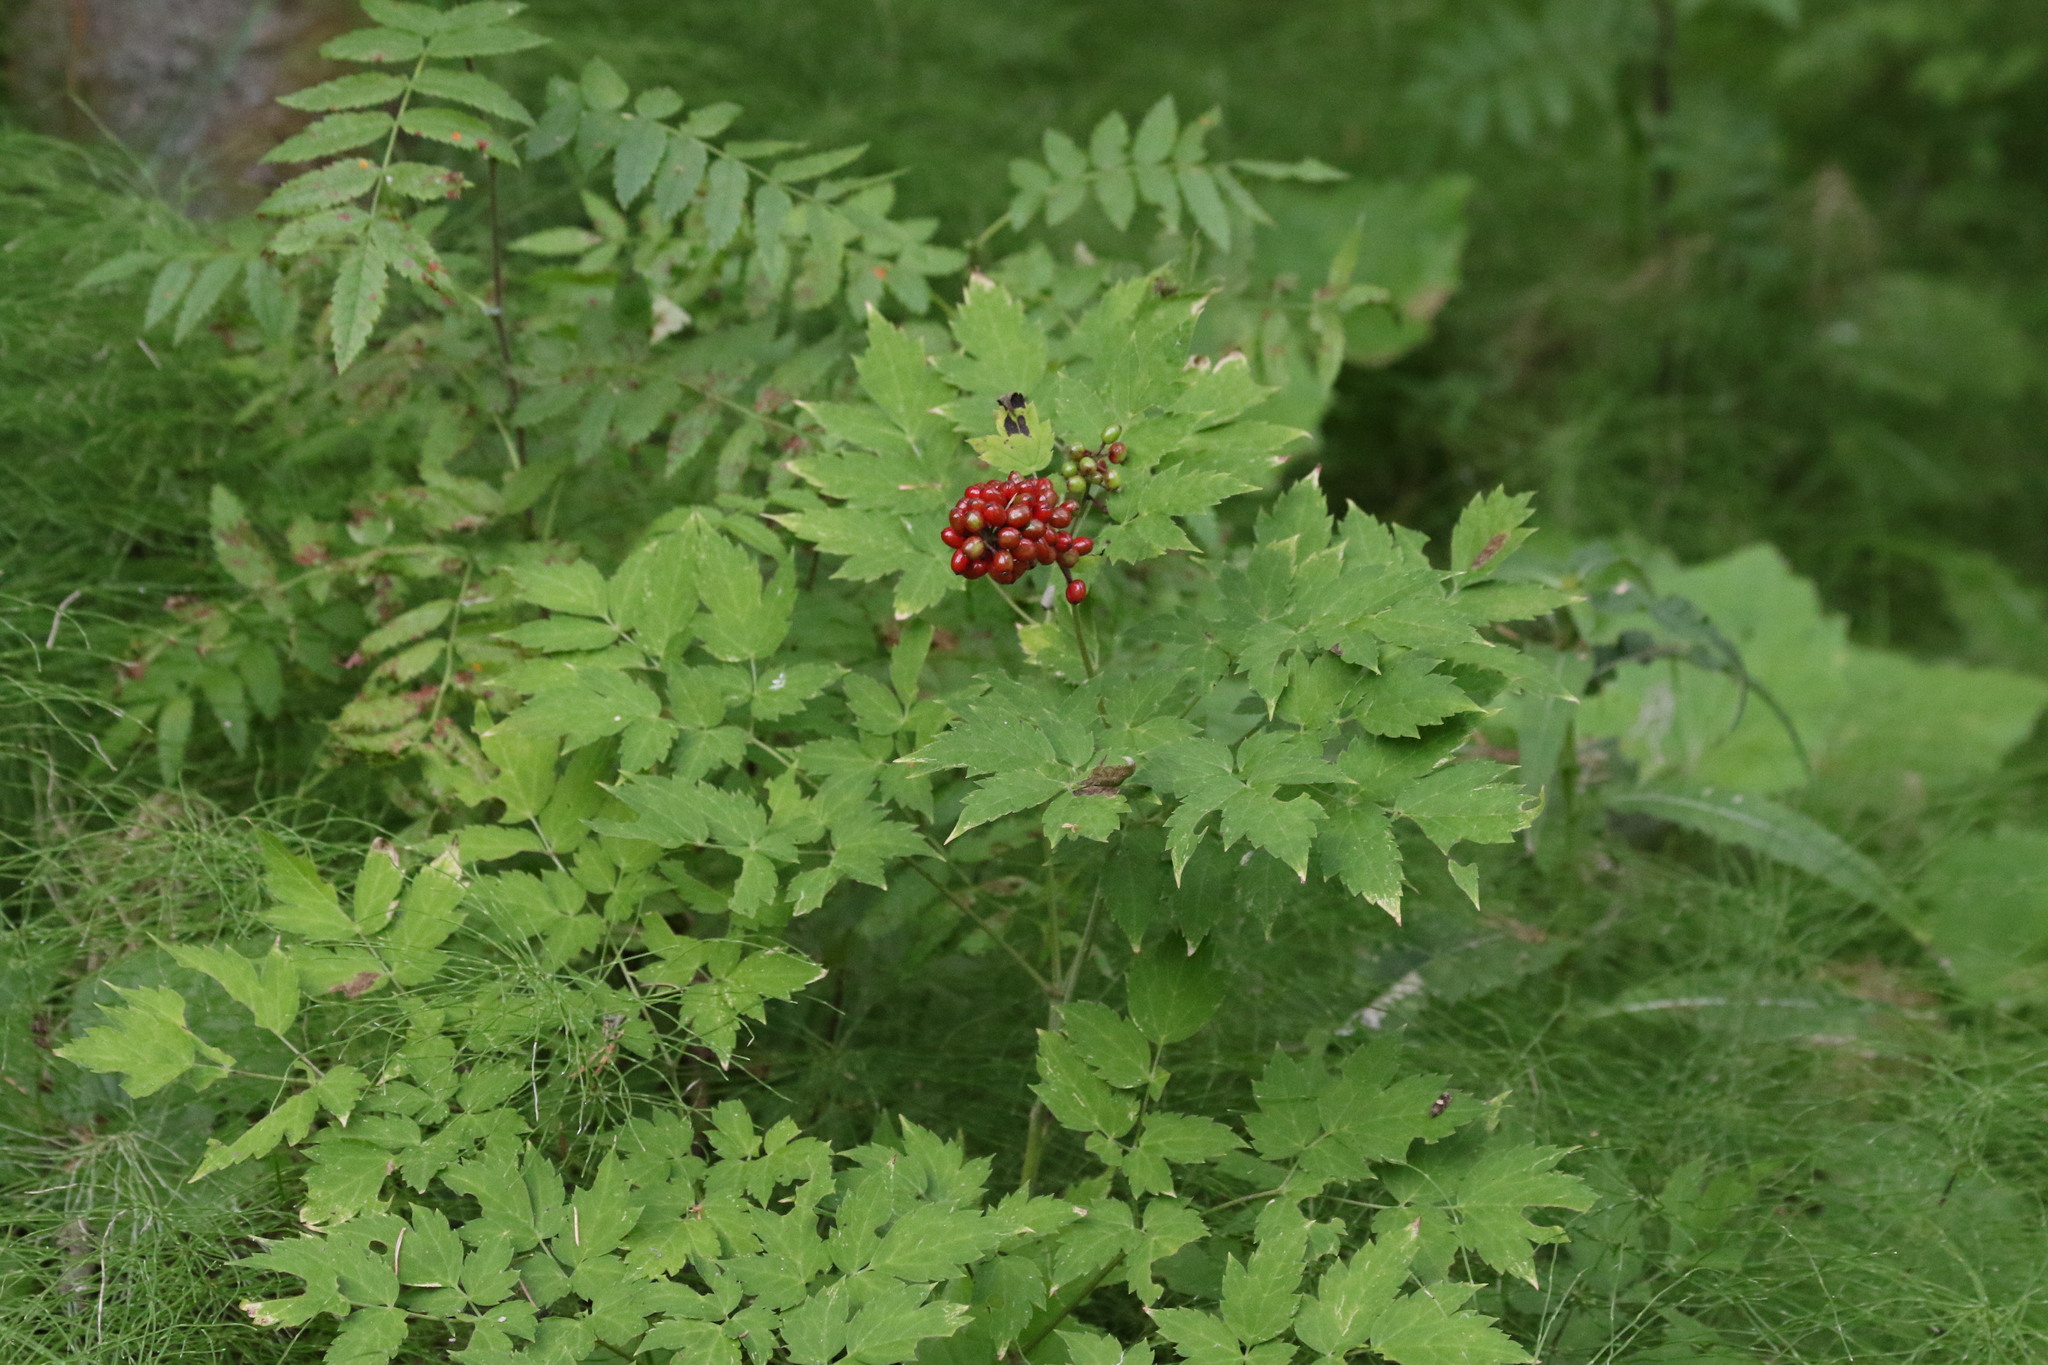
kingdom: Plantae
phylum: Tracheophyta
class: Magnoliopsida
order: Ranunculales
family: Ranunculaceae
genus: Actaea
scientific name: Actaea erythrocarpa
